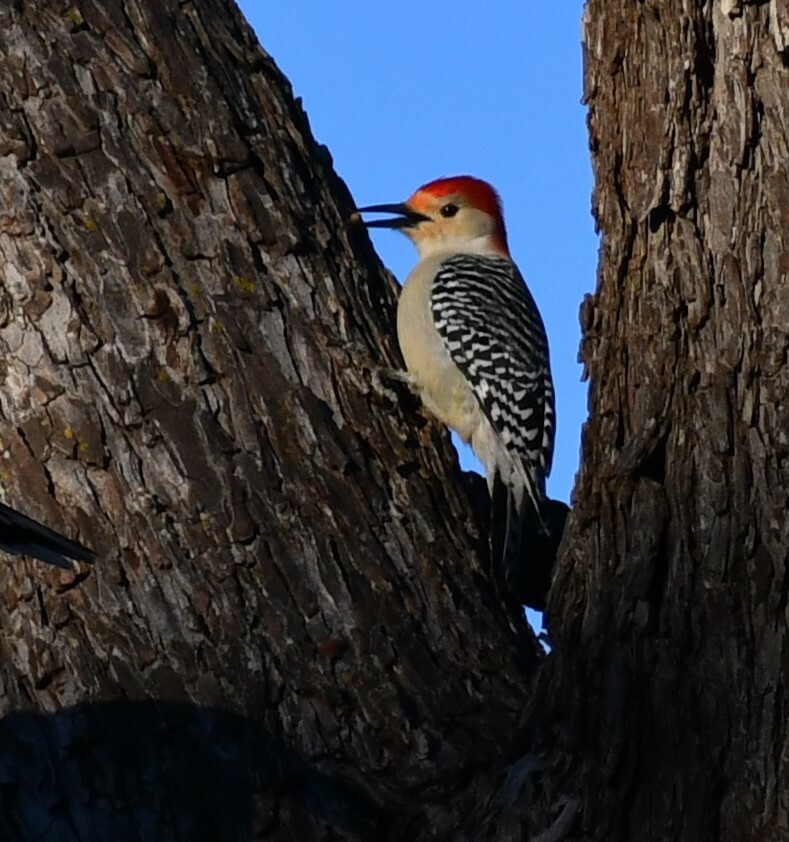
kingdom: Animalia
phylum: Chordata
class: Aves
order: Piciformes
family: Picidae
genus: Melanerpes
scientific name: Melanerpes carolinus
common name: Red-bellied woodpecker
